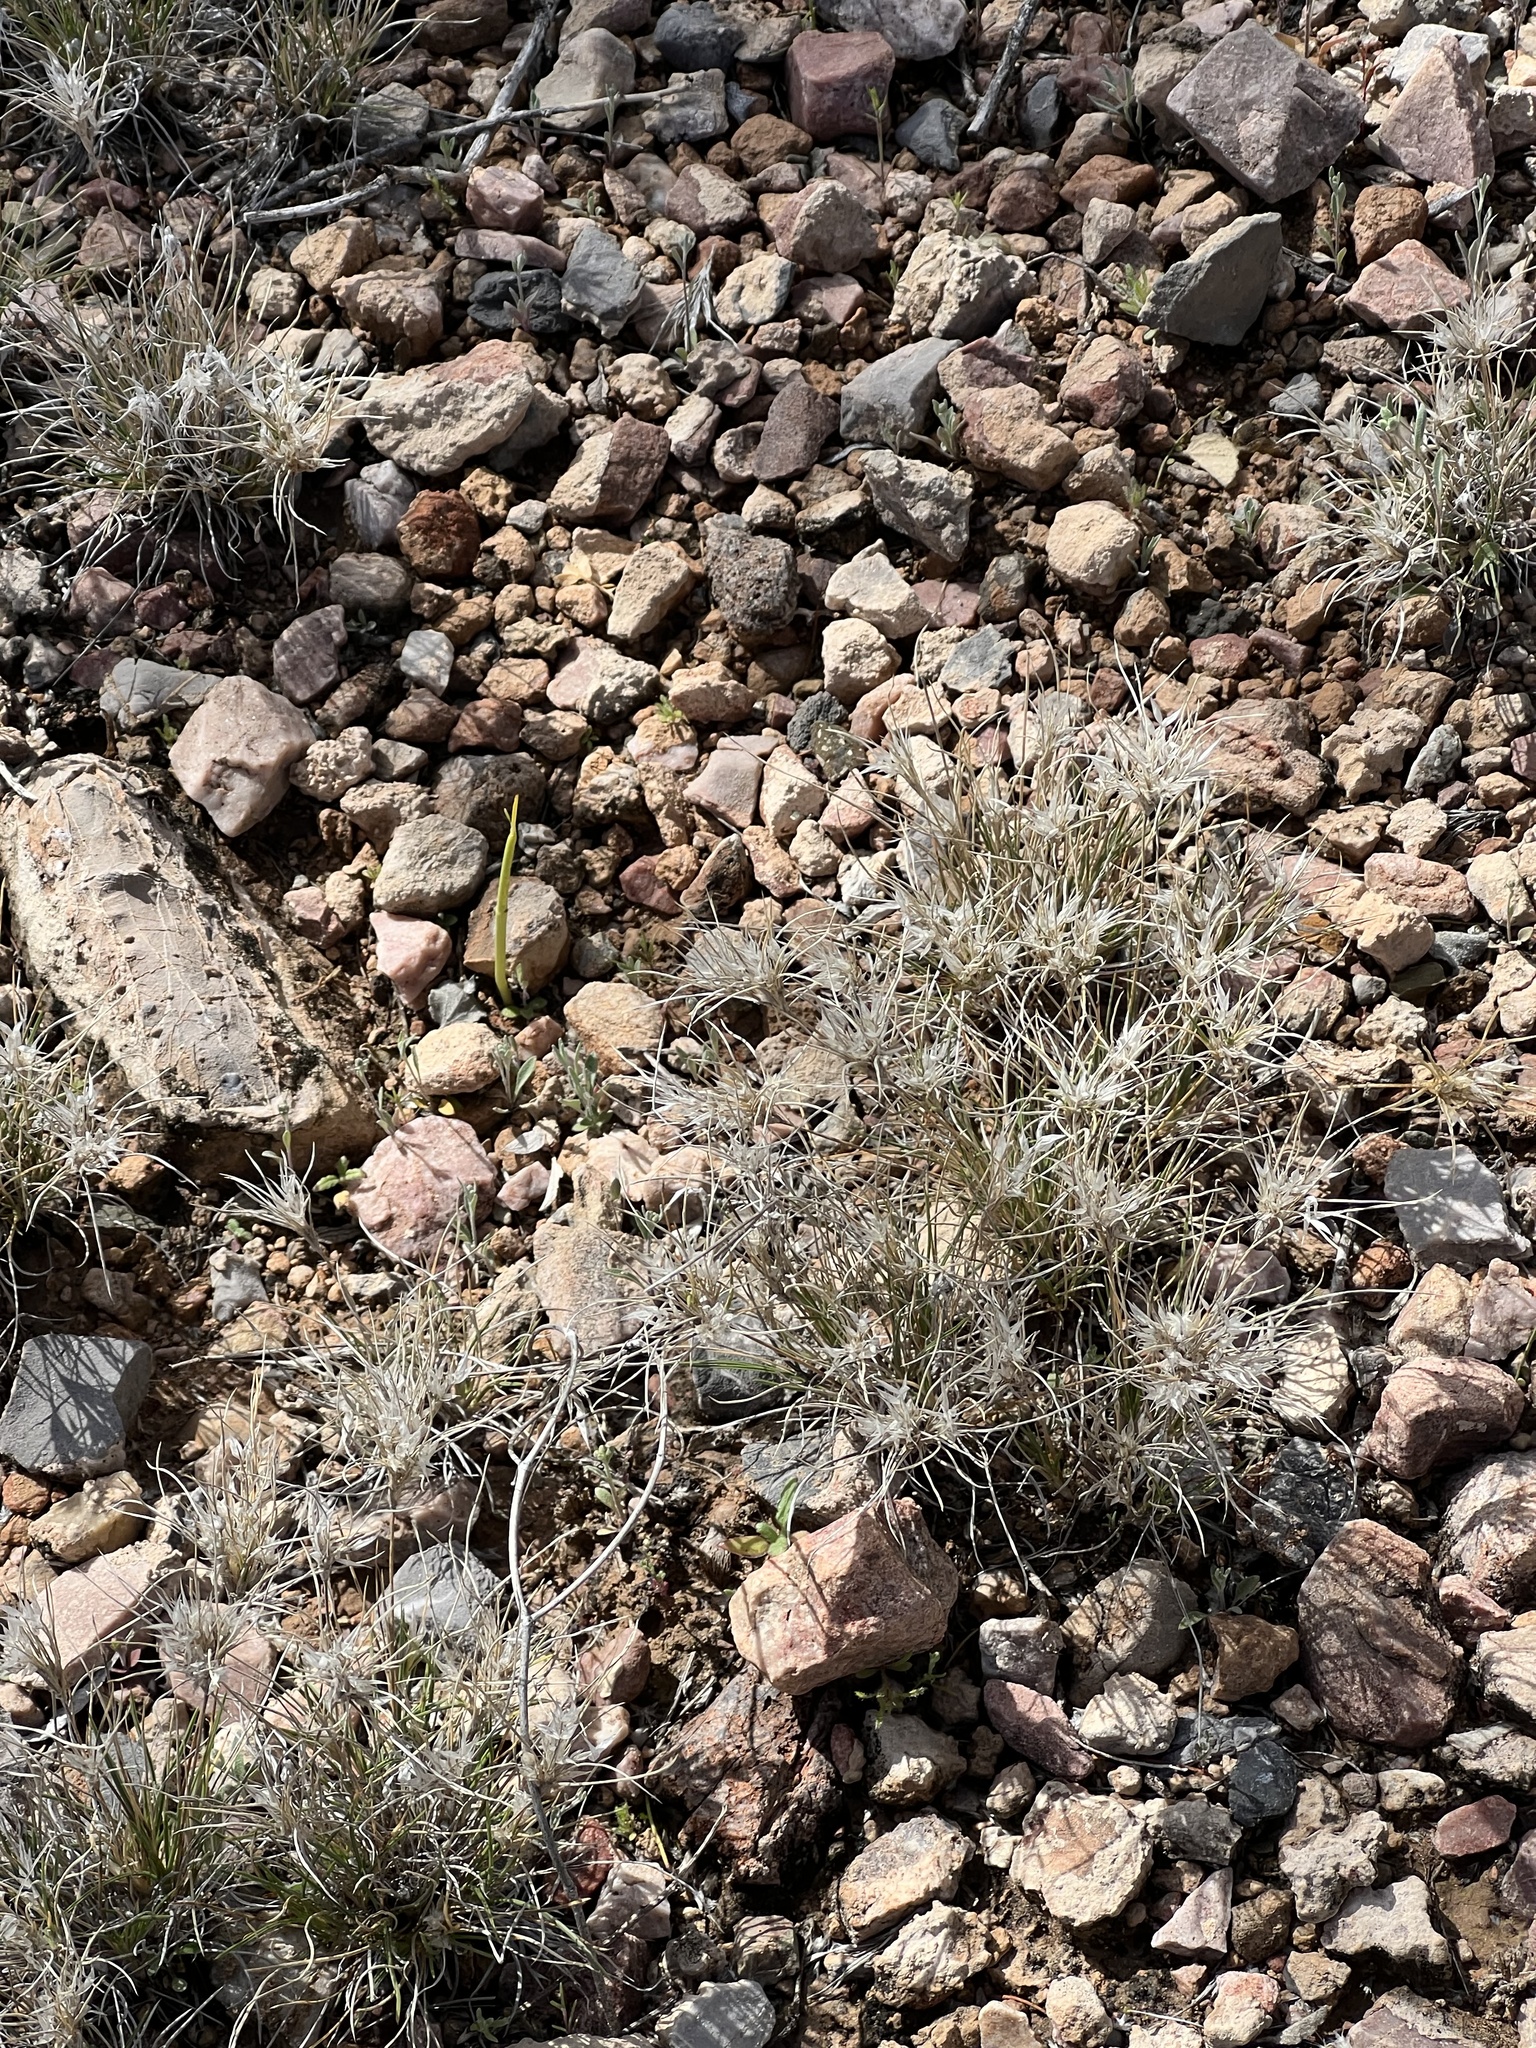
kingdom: Plantae
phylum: Tracheophyta
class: Liliopsida
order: Poales
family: Poaceae
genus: Dasyochloa
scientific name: Dasyochloa pulchella
